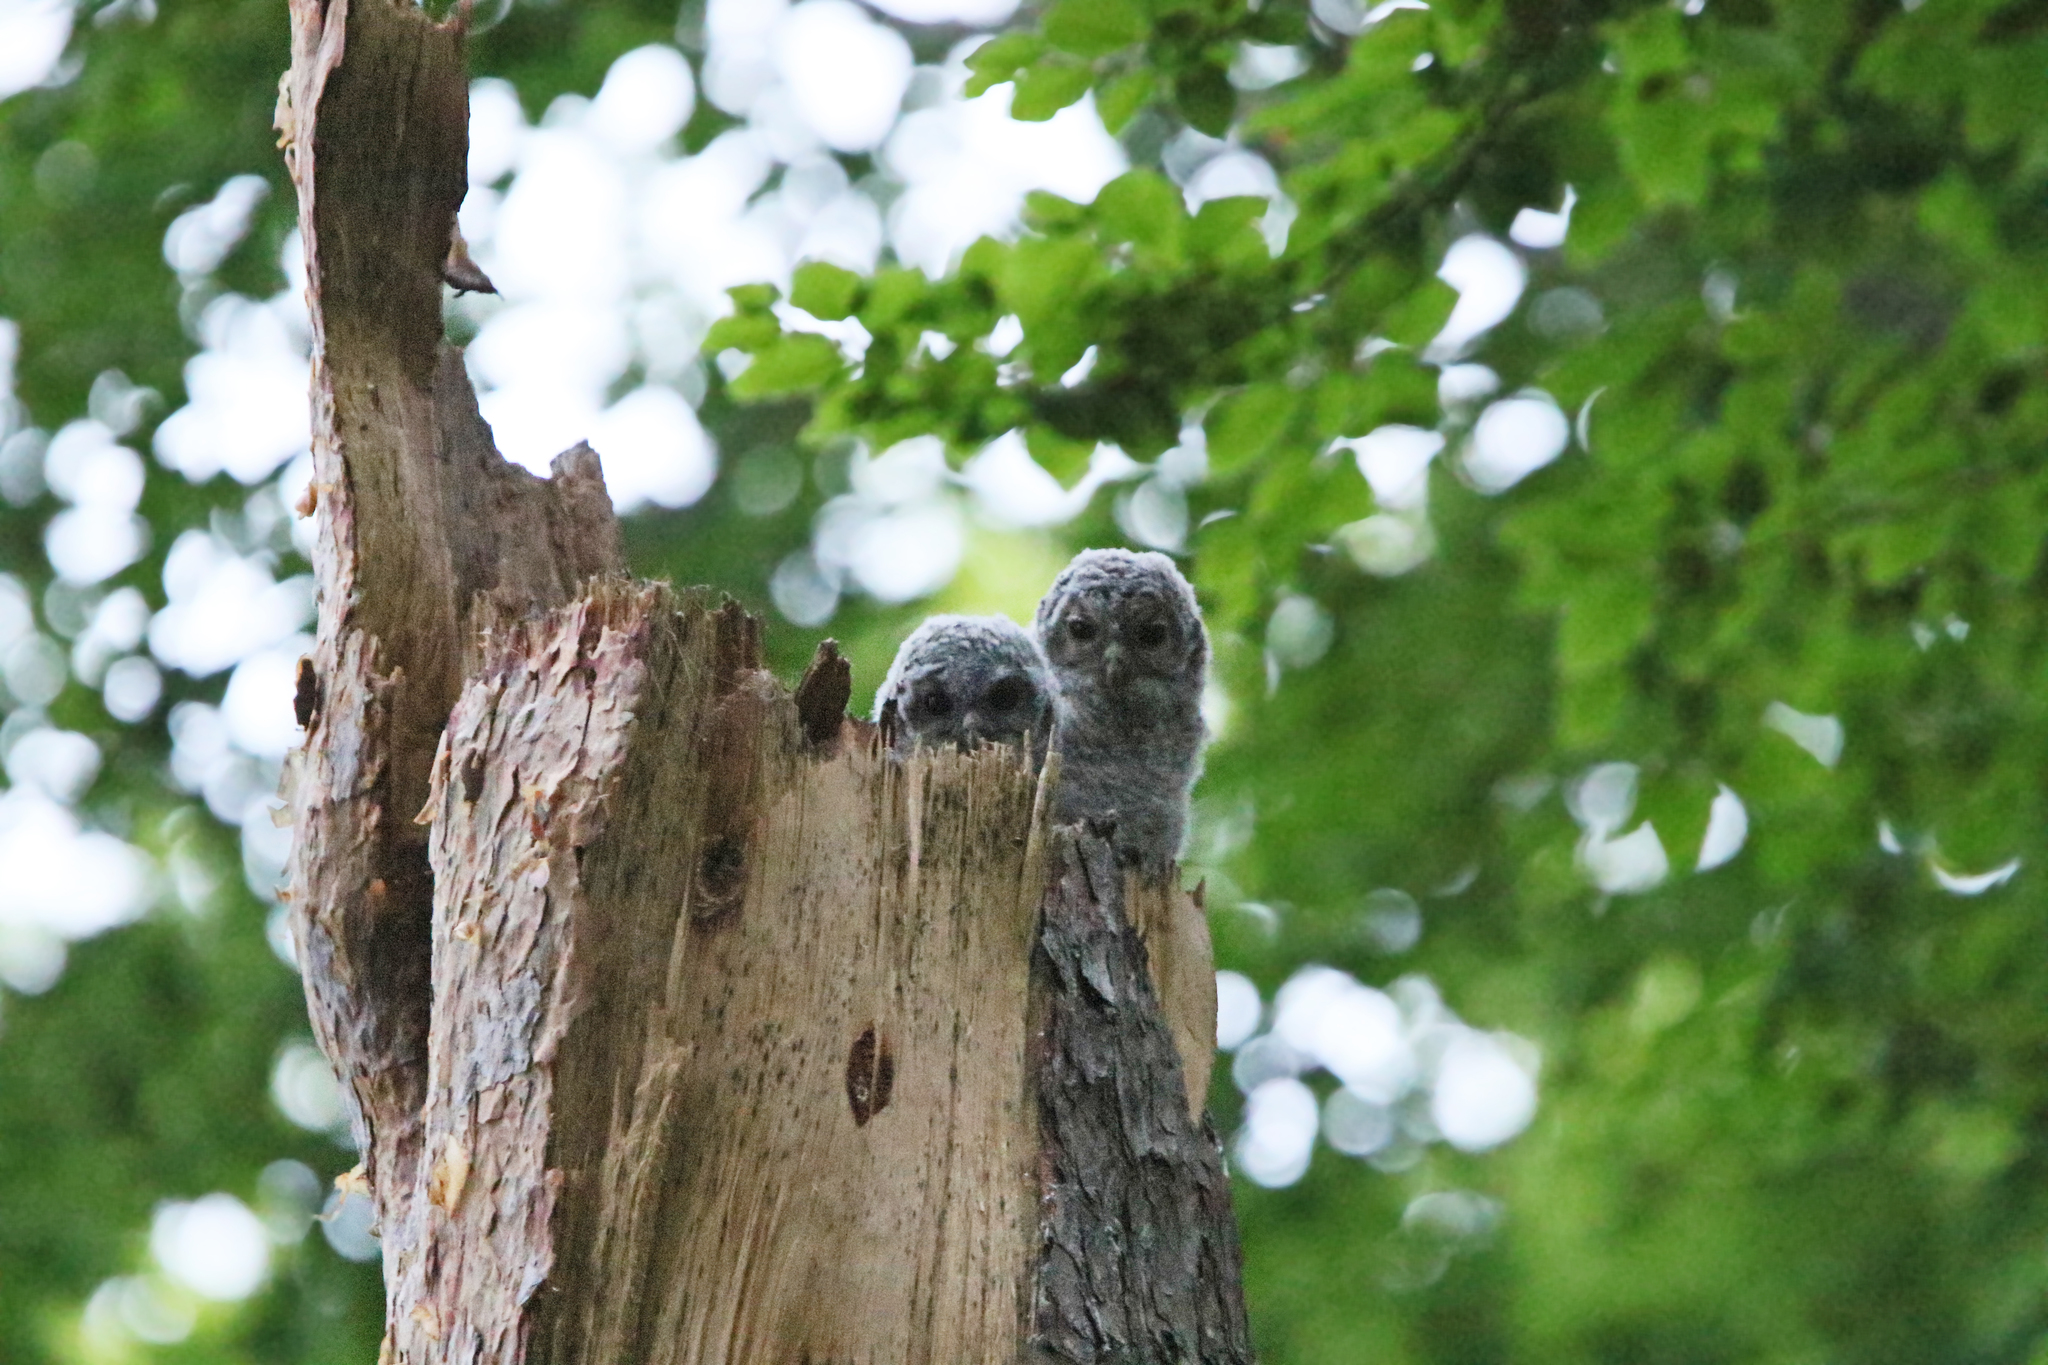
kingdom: Animalia
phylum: Chordata
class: Aves
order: Strigiformes
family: Strigidae
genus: Strix
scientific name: Strix aluco
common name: Tawny owl
